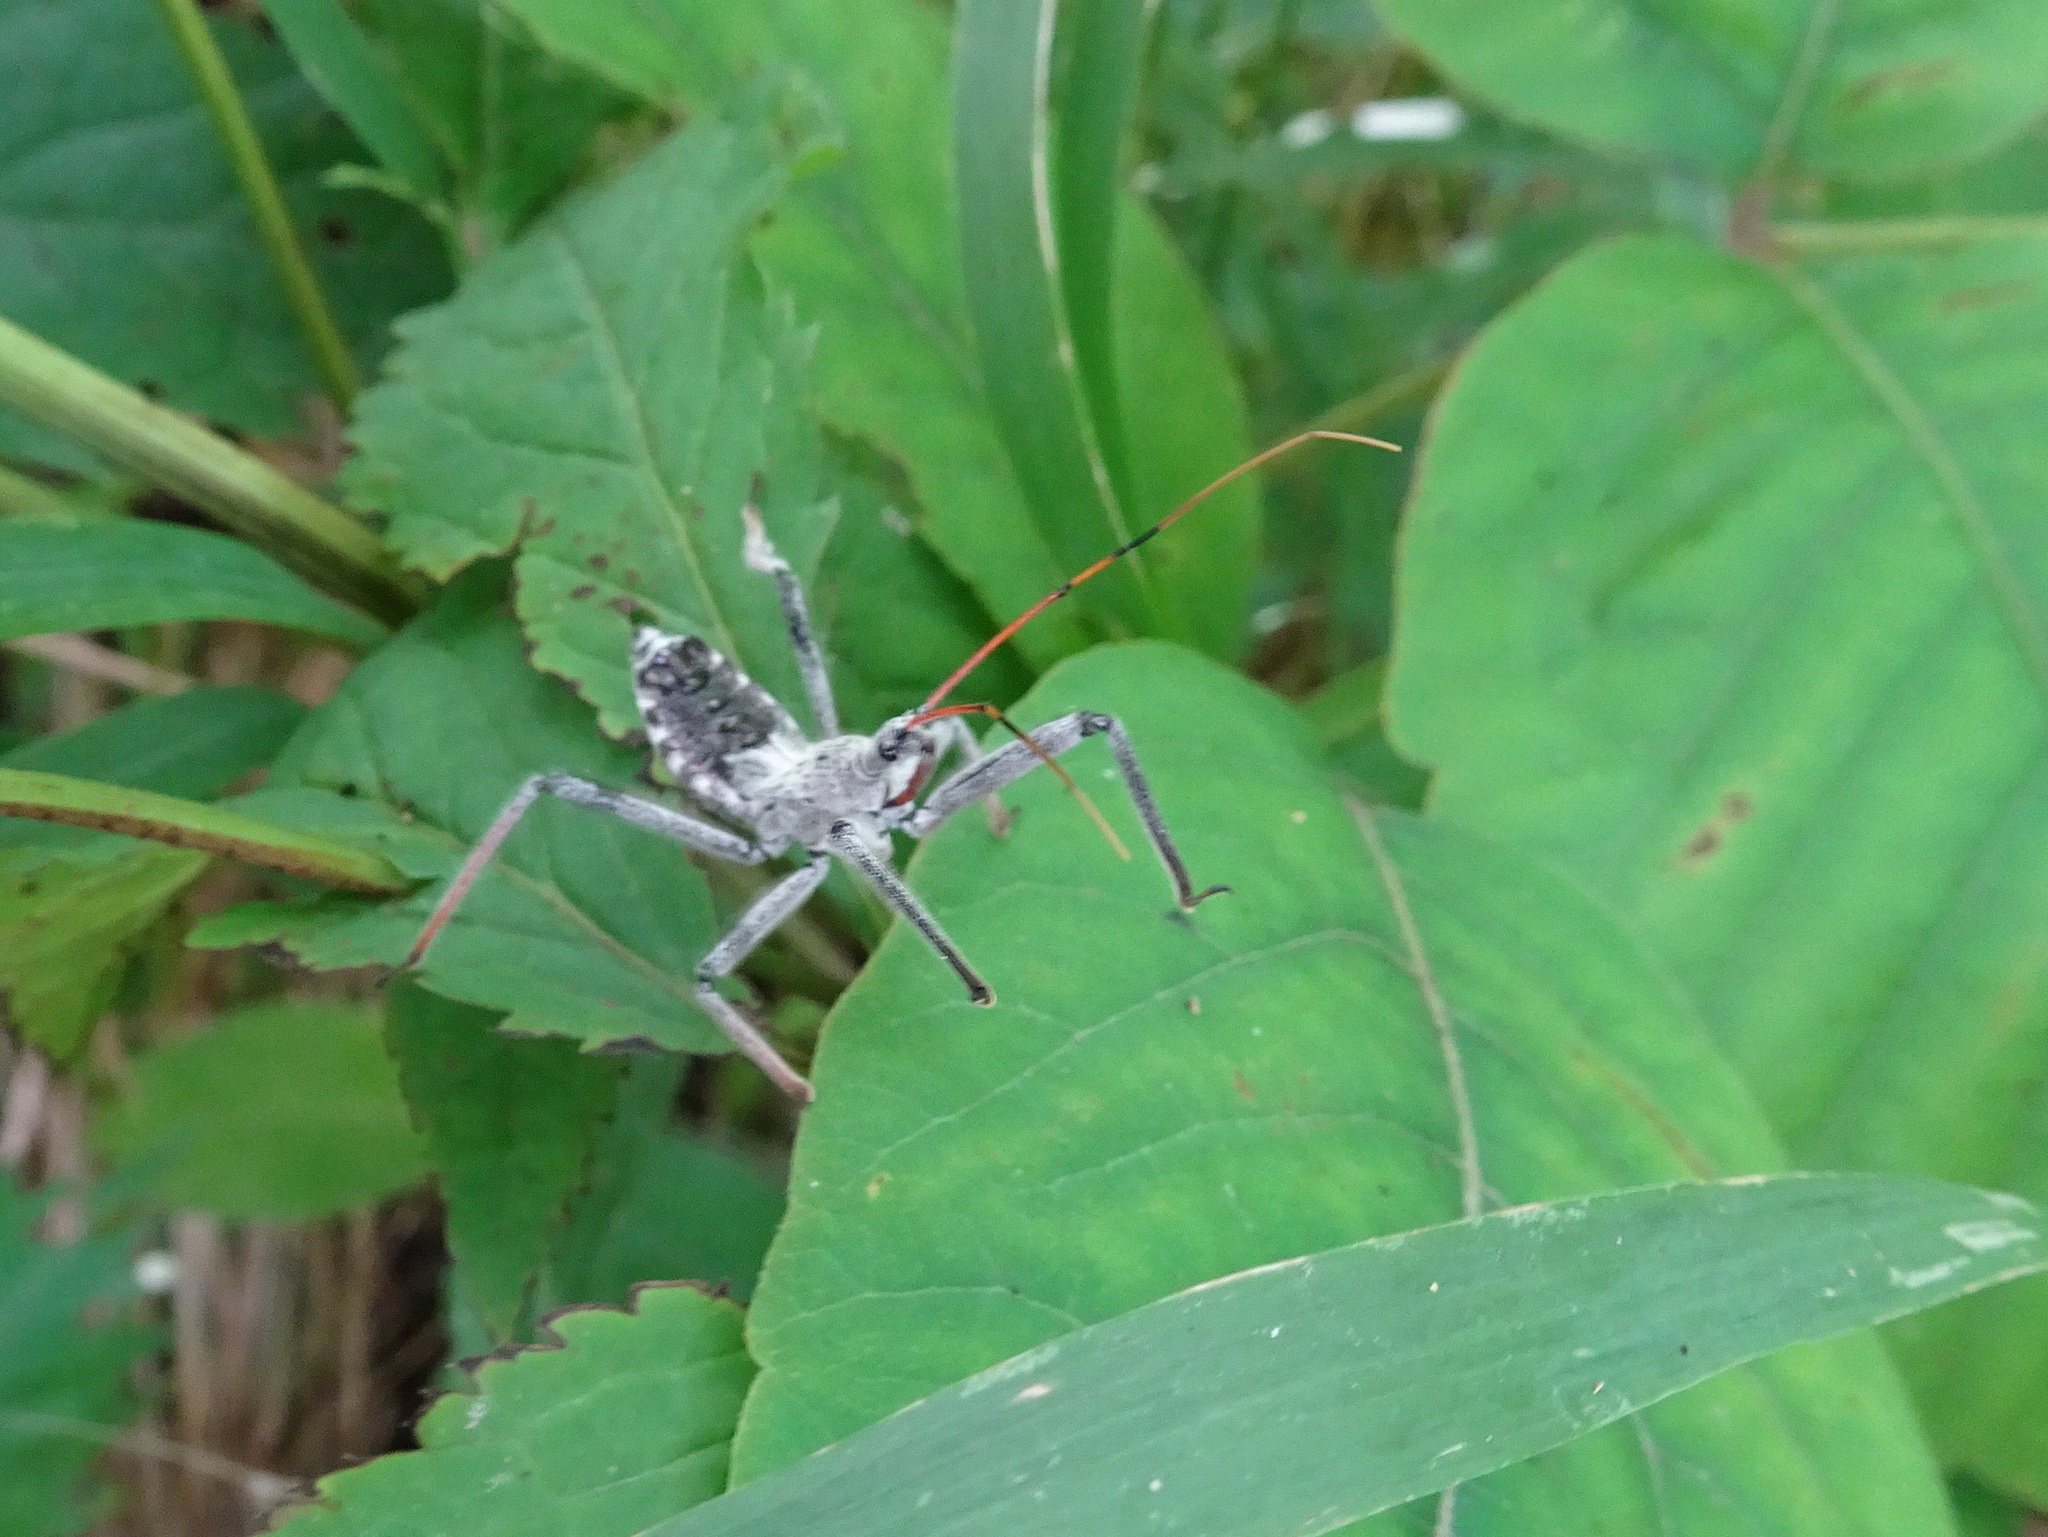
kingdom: Animalia
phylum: Arthropoda
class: Insecta
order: Hemiptera
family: Reduviidae
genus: Arilus
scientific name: Arilus cristatus
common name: North american wheel bug
